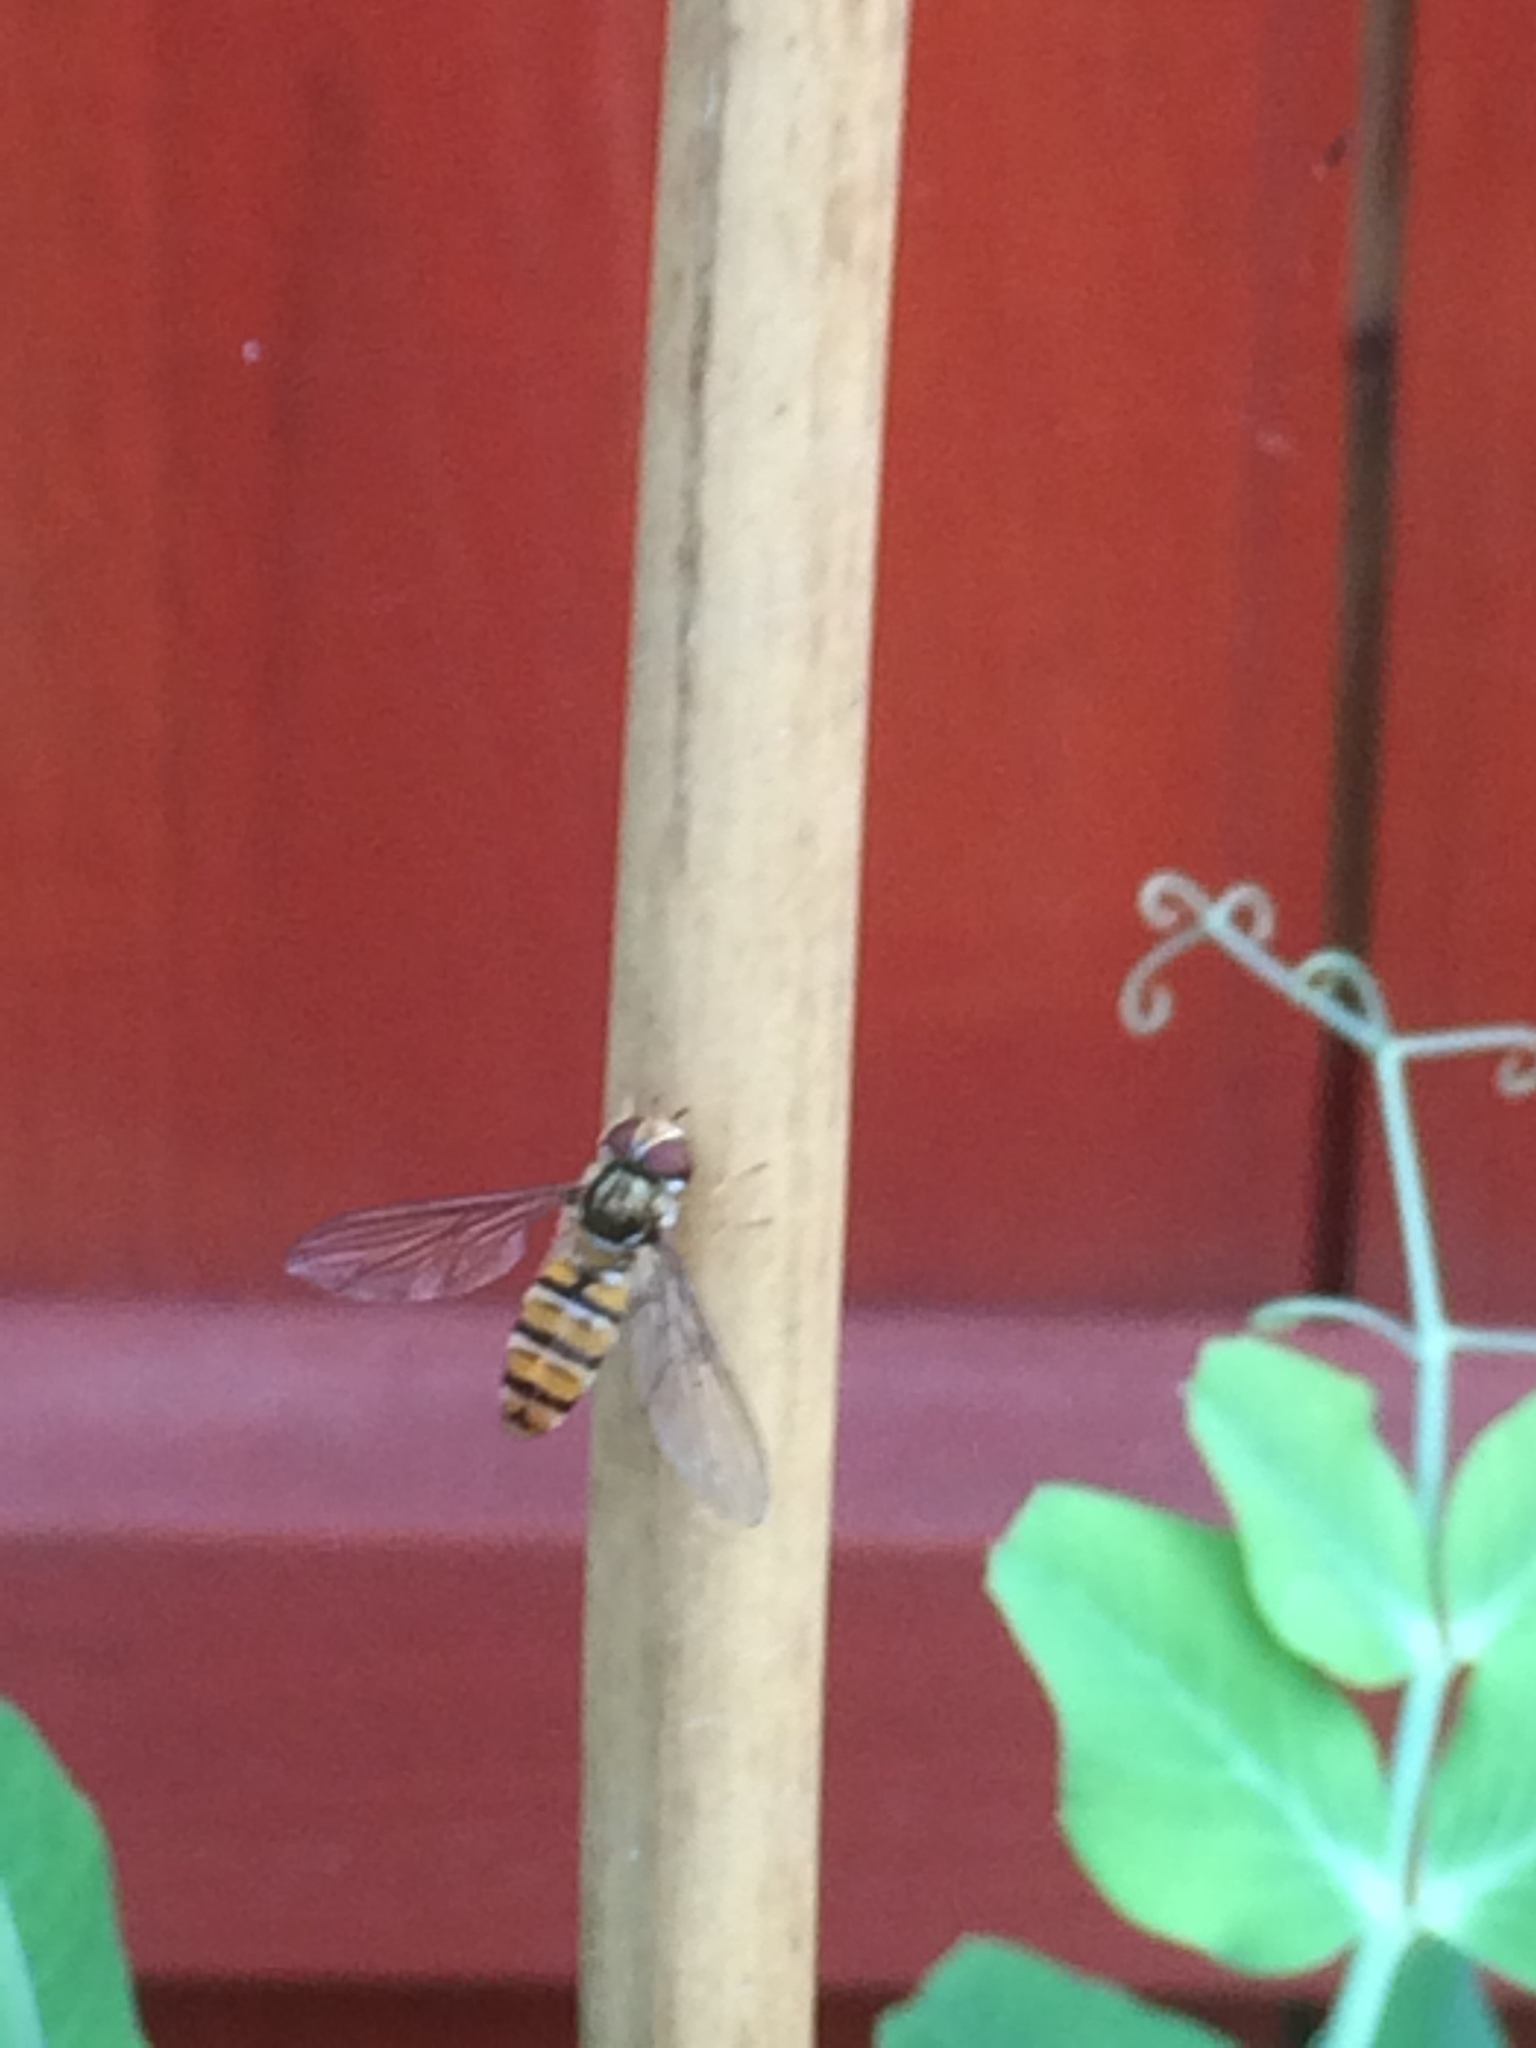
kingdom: Animalia
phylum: Arthropoda
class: Insecta
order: Diptera
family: Syrphidae
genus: Episyrphus
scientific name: Episyrphus balteatus
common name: Marmalade hoverfly
